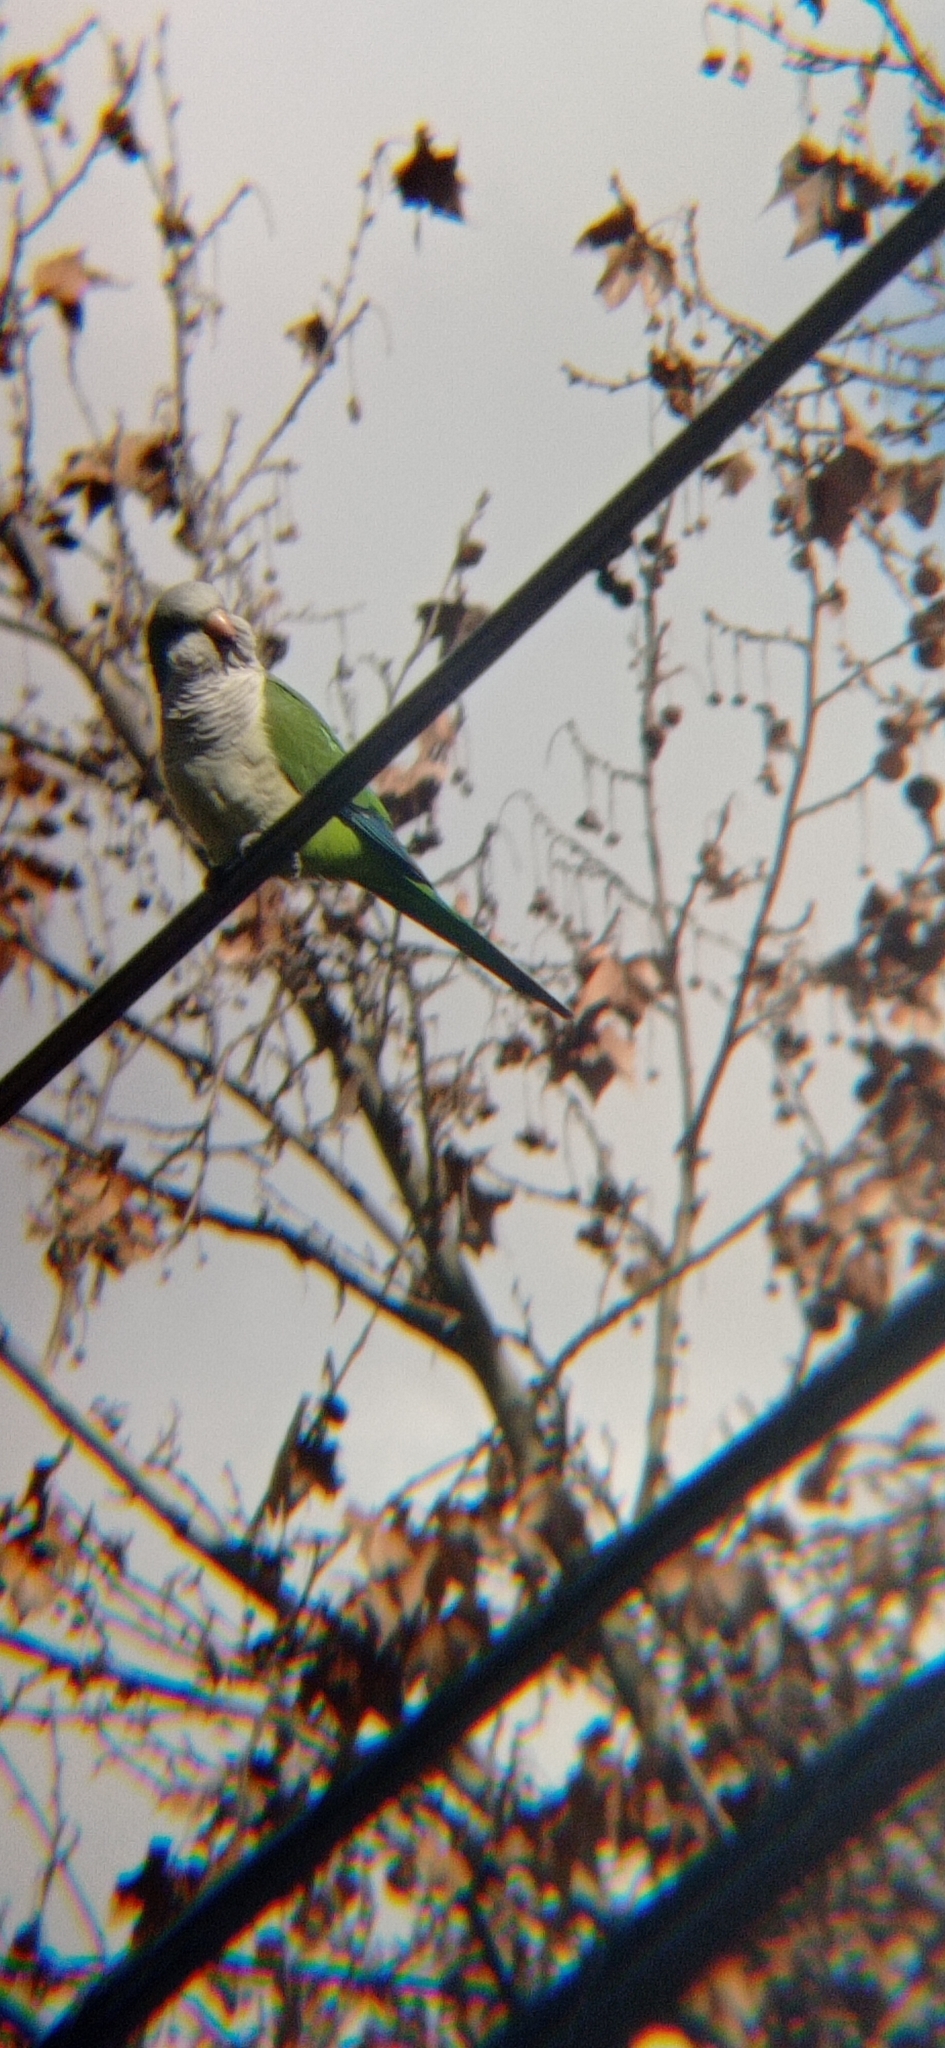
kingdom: Animalia
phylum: Chordata
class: Aves
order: Psittaciformes
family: Psittacidae
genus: Myiopsitta
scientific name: Myiopsitta monachus
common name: Monk parakeet
